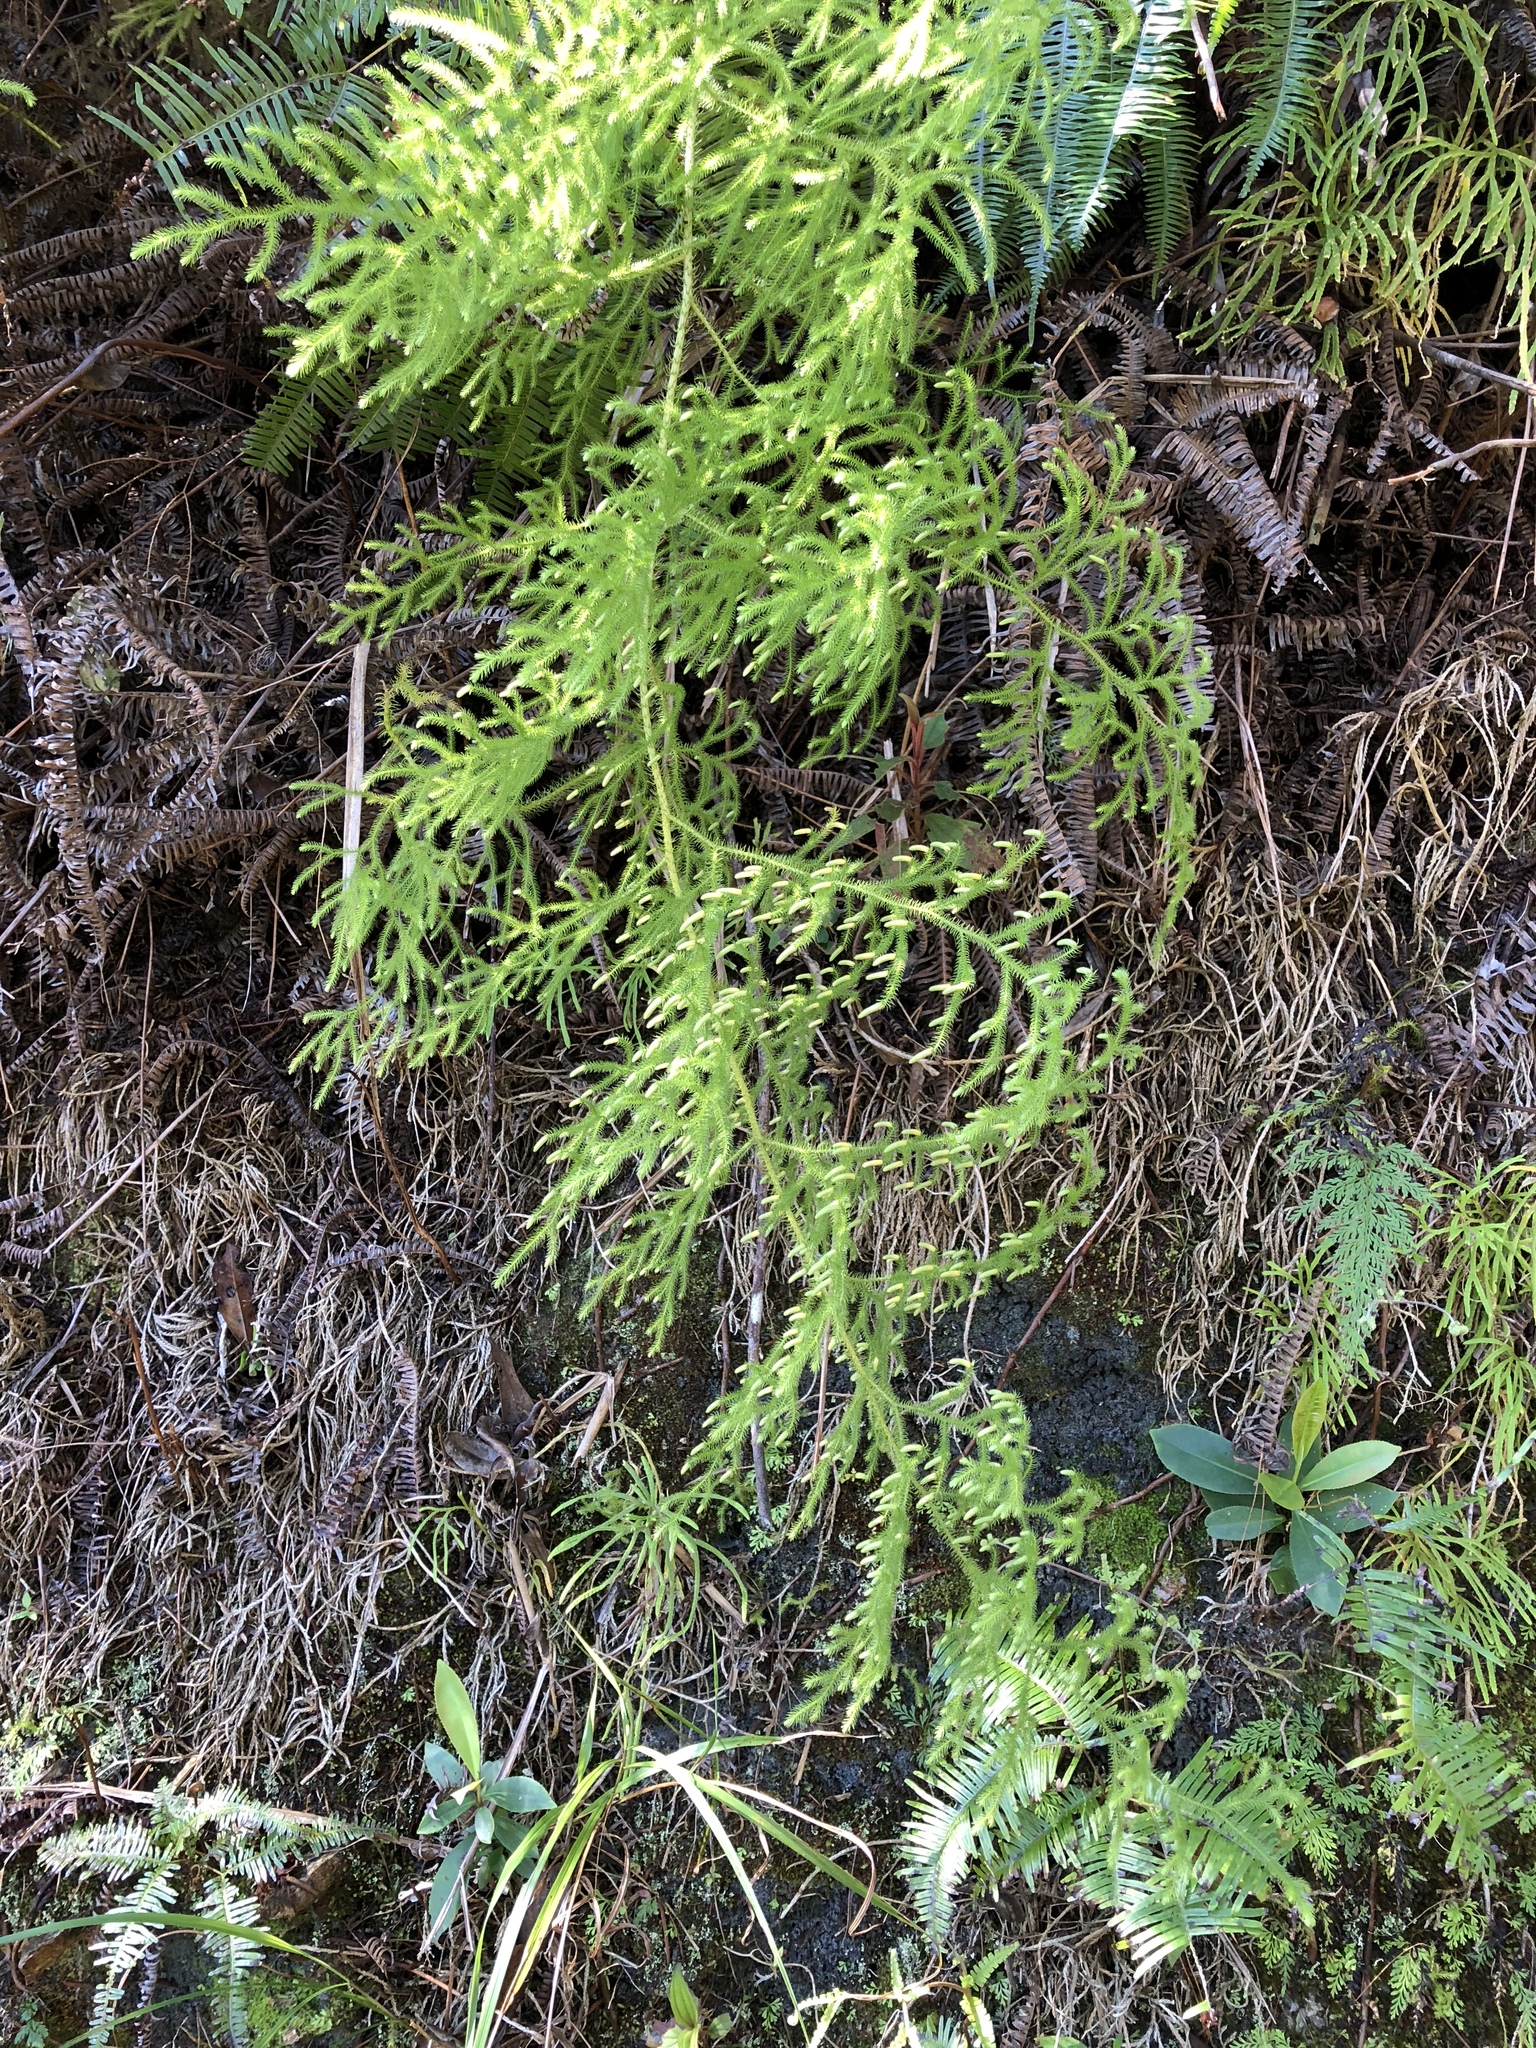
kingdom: Plantae
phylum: Tracheophyta
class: Lycopodiopsida
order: Lycopodiales
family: Lycopodiaceae
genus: Palhinhaea
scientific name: Palhinhaea cernua
